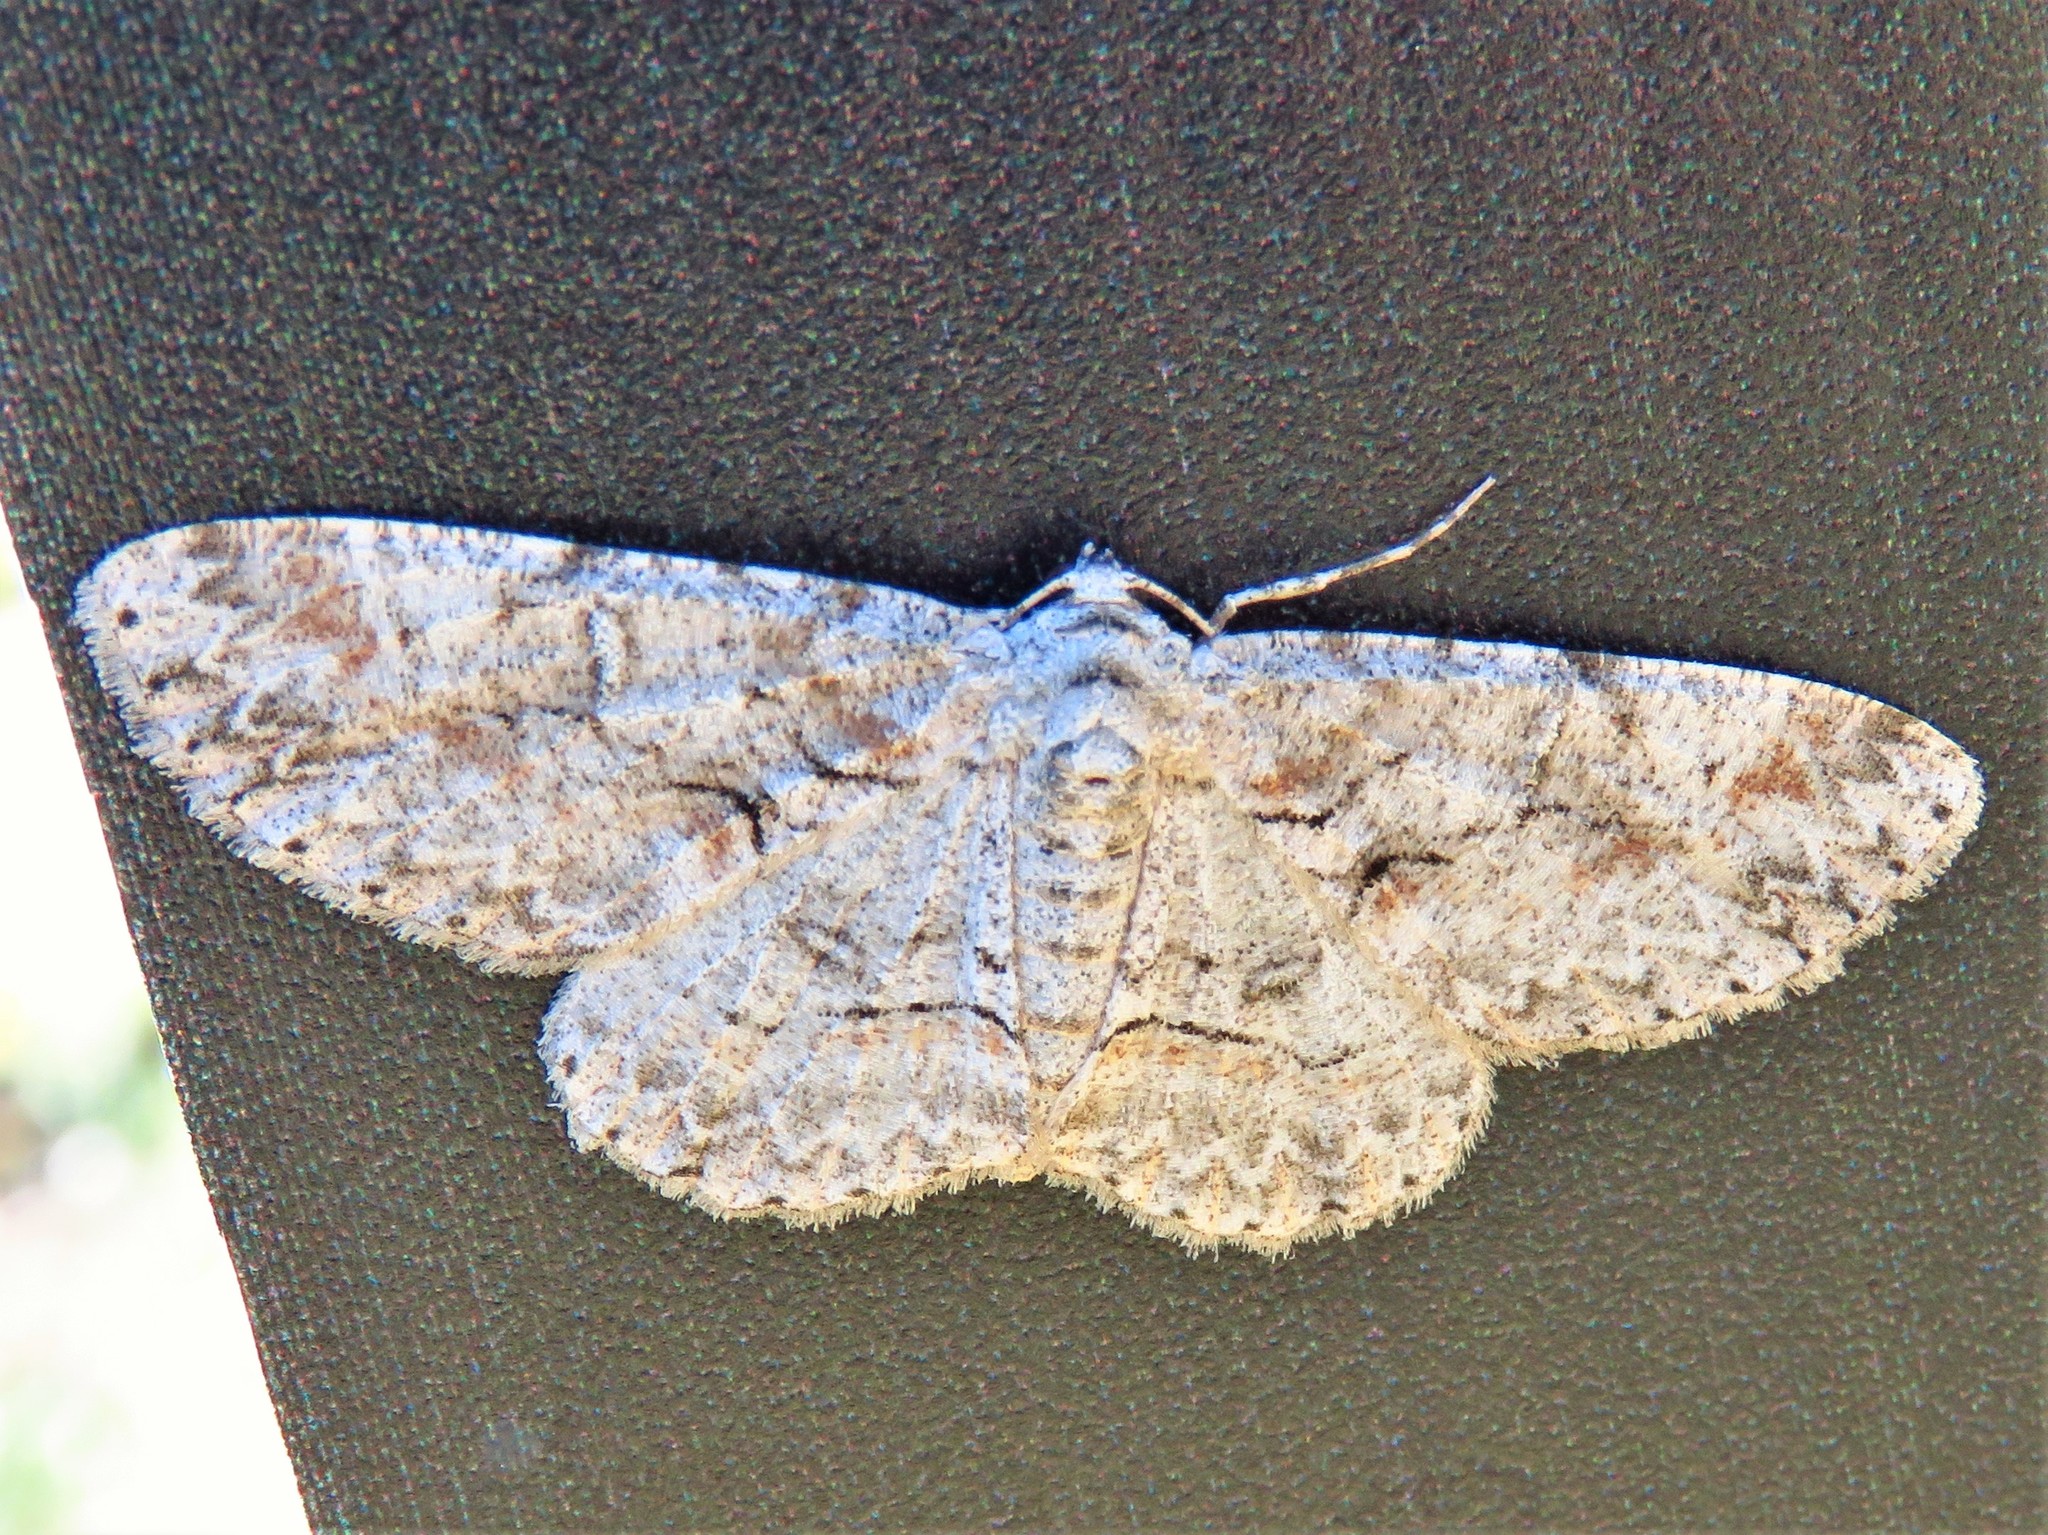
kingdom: Animalia
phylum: Arthropoda
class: Insecta
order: Lepidoptera
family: Geometridae
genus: Iridopsis
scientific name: Iridopsis defectaria
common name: Brown-shaded gray
